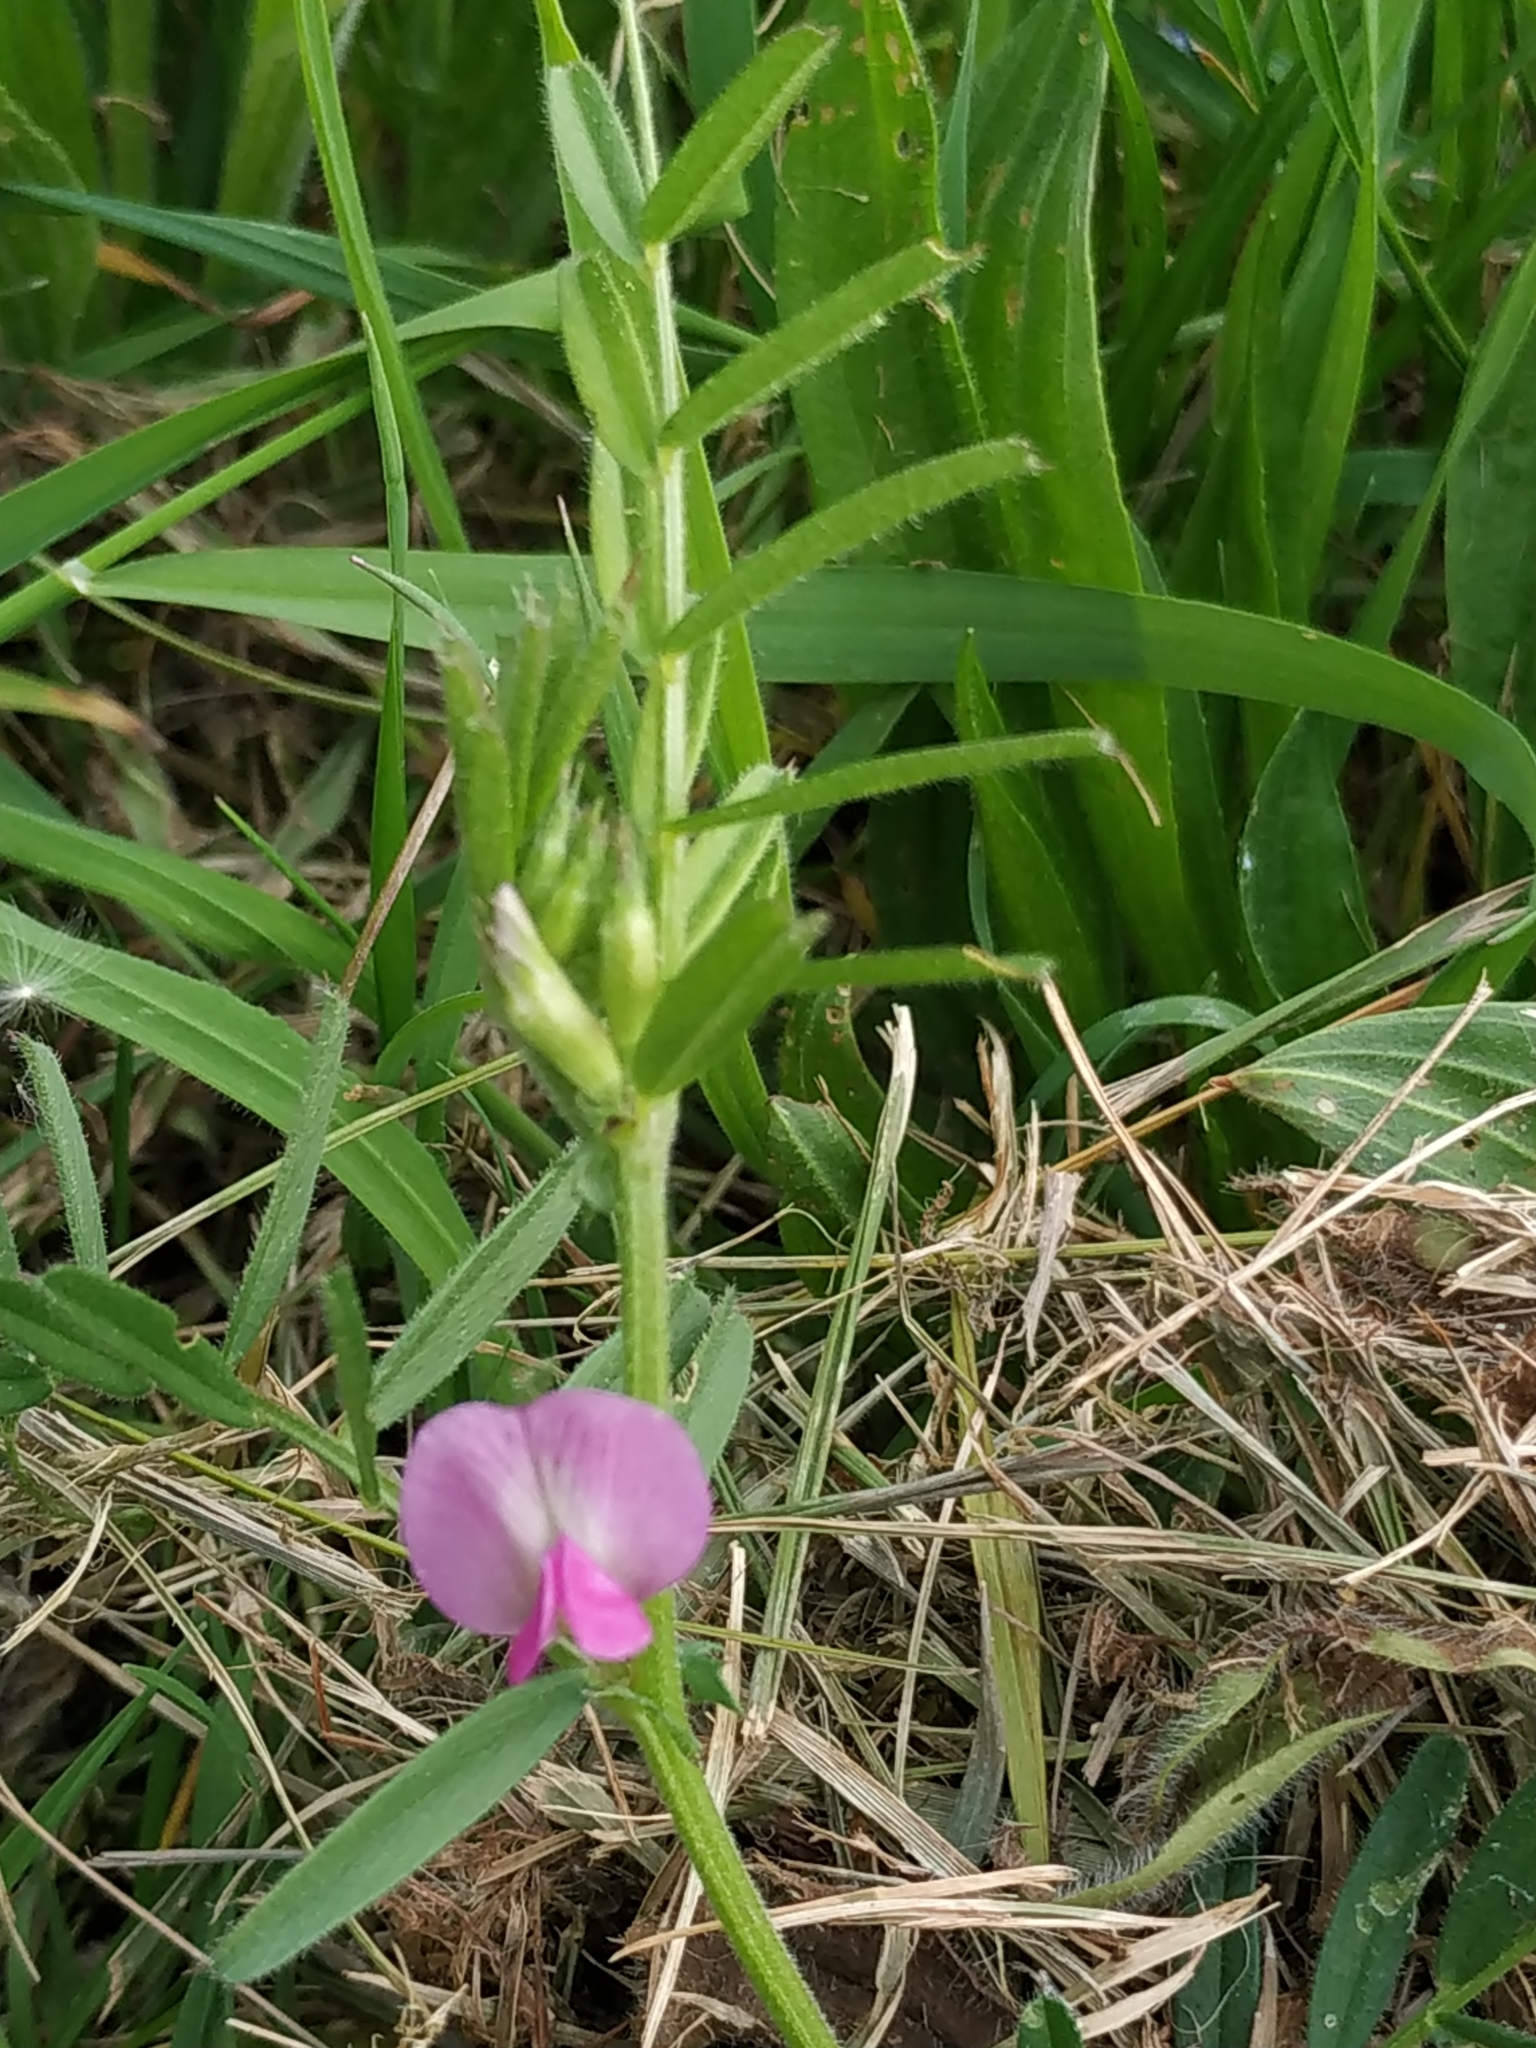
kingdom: Plantae
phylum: Tracheophyta
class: Magnoliopsida
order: Fabales
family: Fabaceae
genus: Vicia
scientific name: Vicia sativa
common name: Garden vetch
